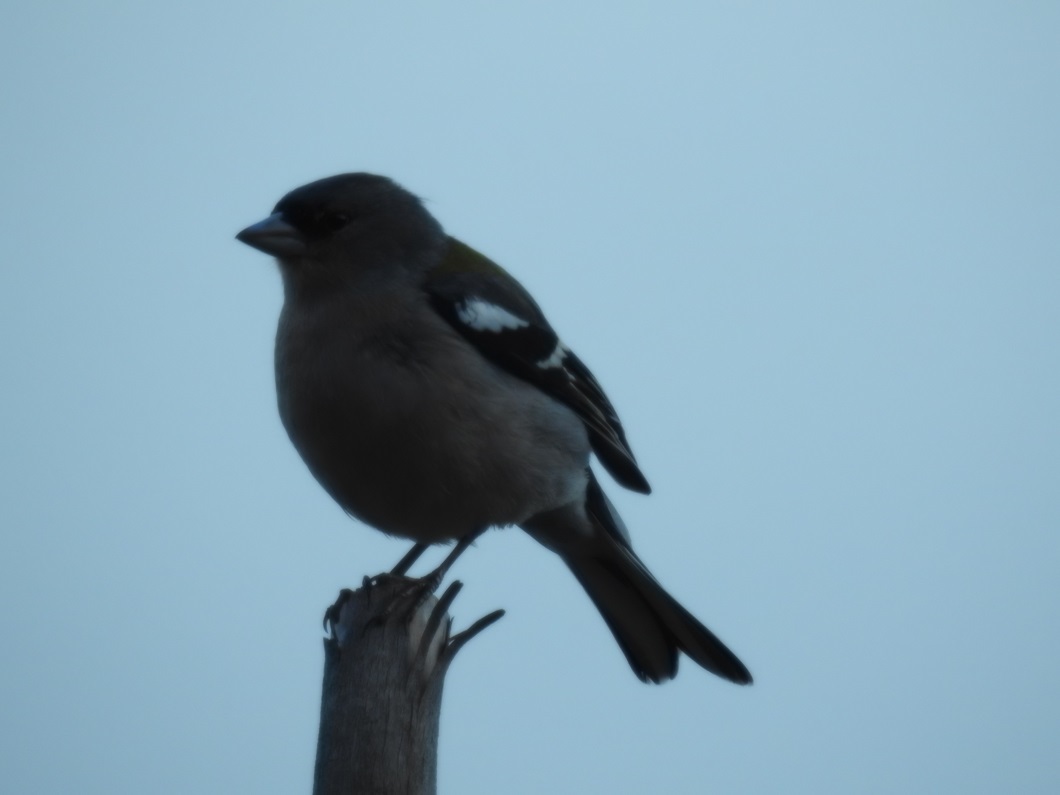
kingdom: Animalia
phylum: Chordata
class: Aves
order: Passeriformes
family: Fringillidae
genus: Fringilla
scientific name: Fringilla spodiogenys
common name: African chaffinch
